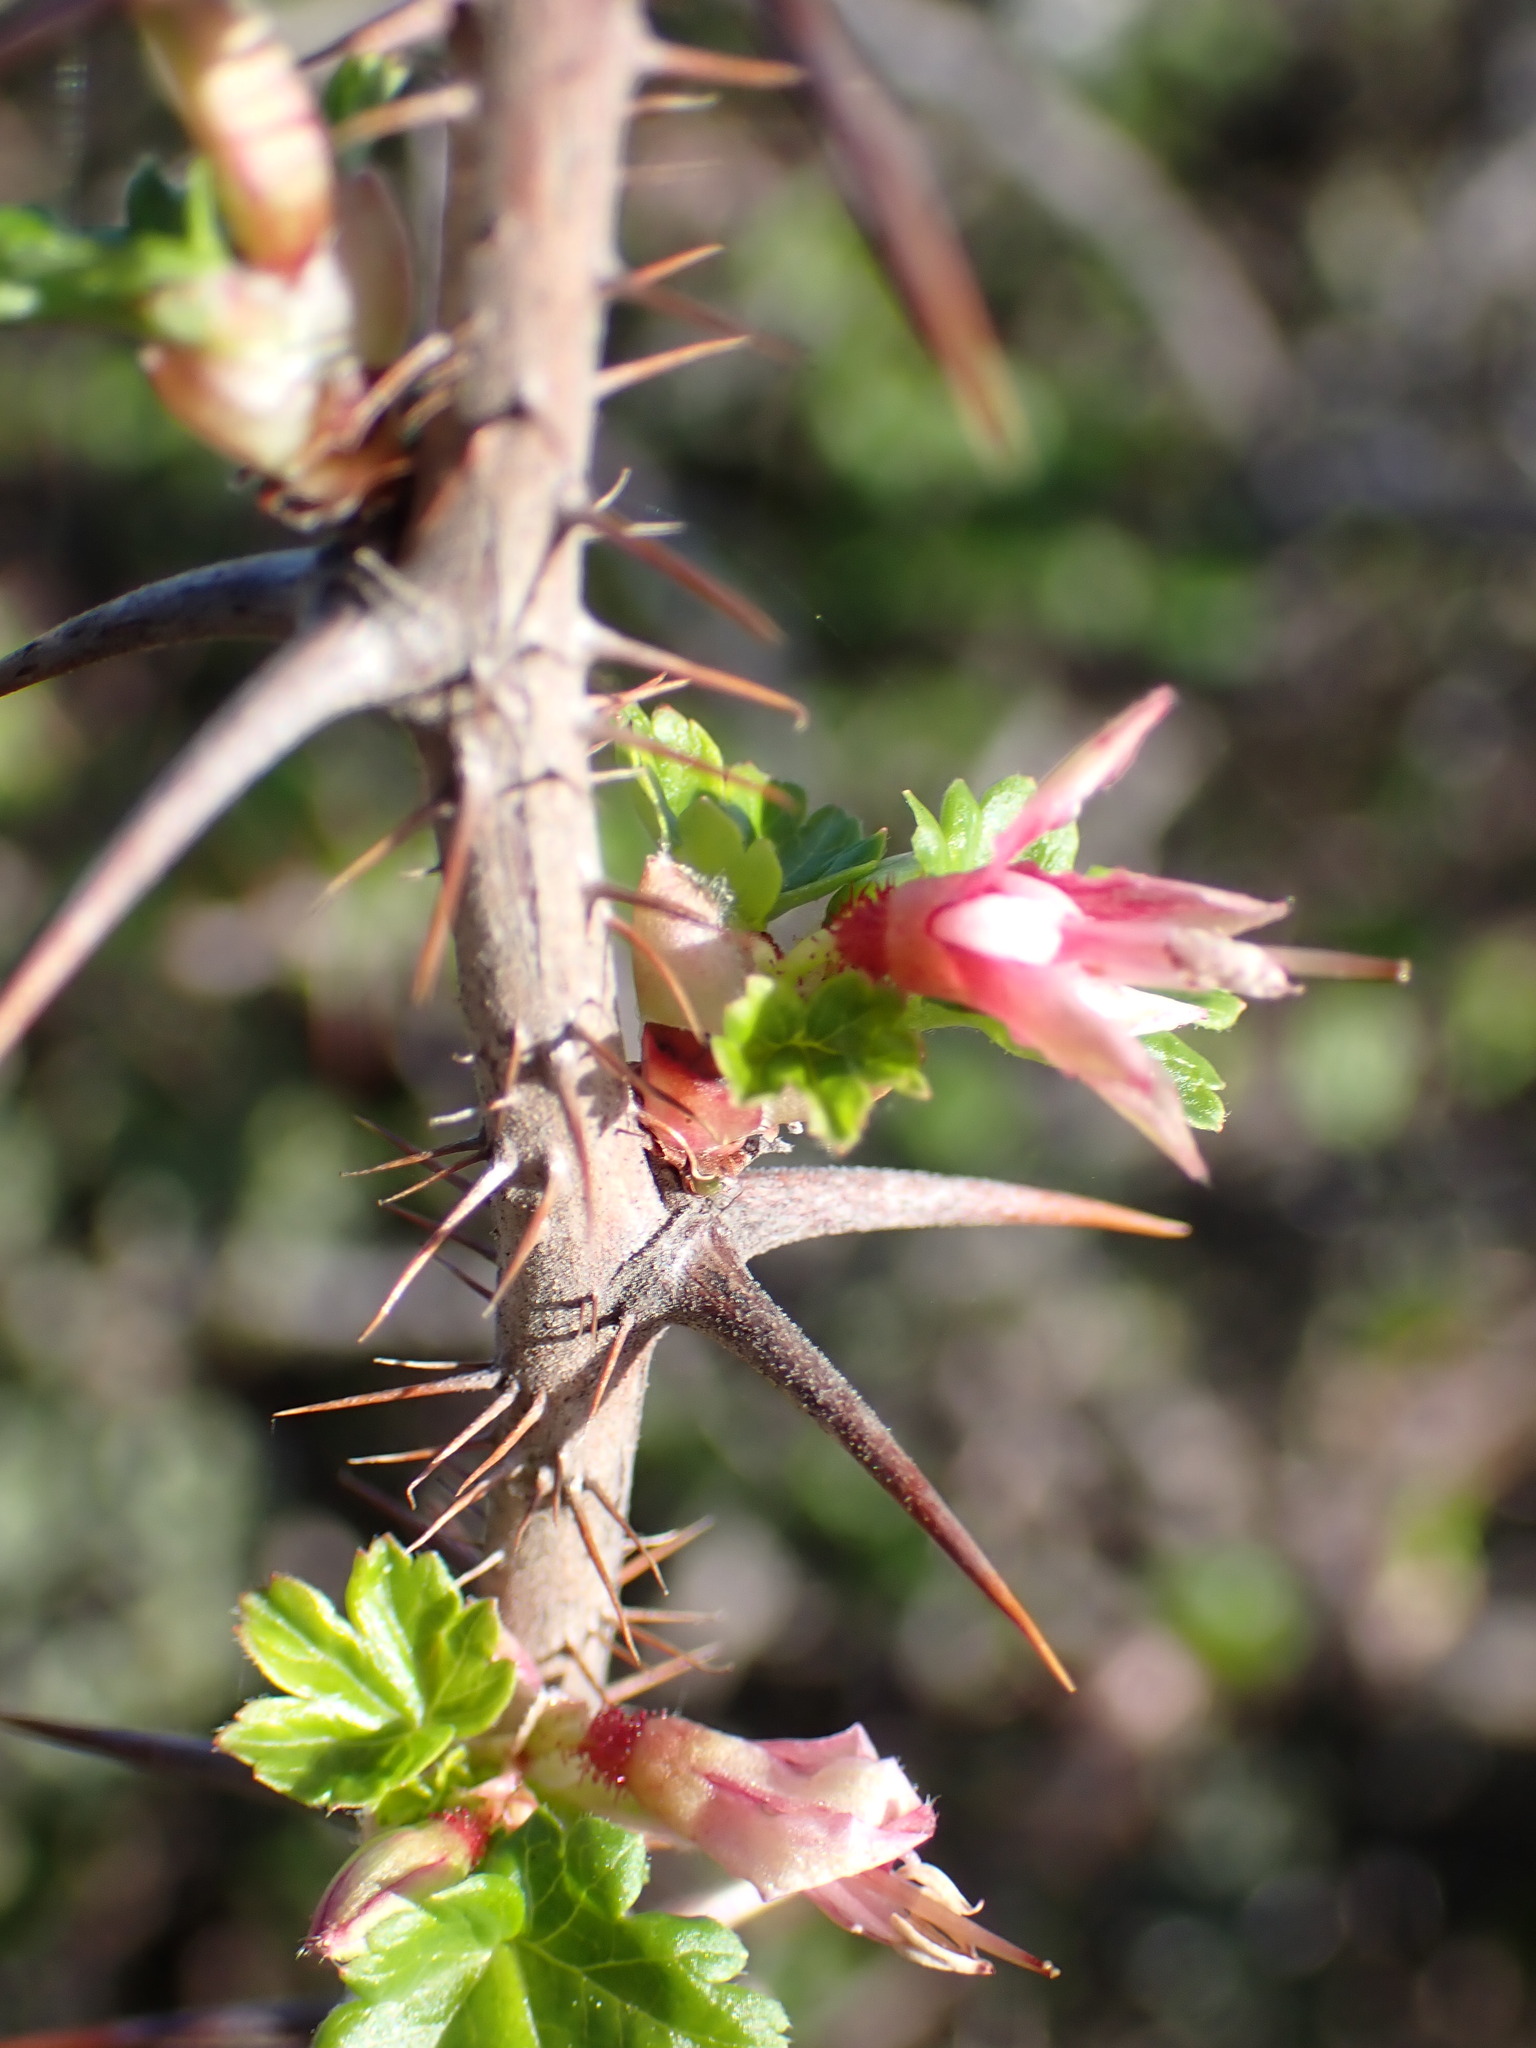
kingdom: Plantae
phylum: Tracheophyta
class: Magnoliopsida
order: Saxifragales
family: Grossulariaceae
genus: Ribes
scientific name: Ribes menziesii
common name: Canyon gooseberry
